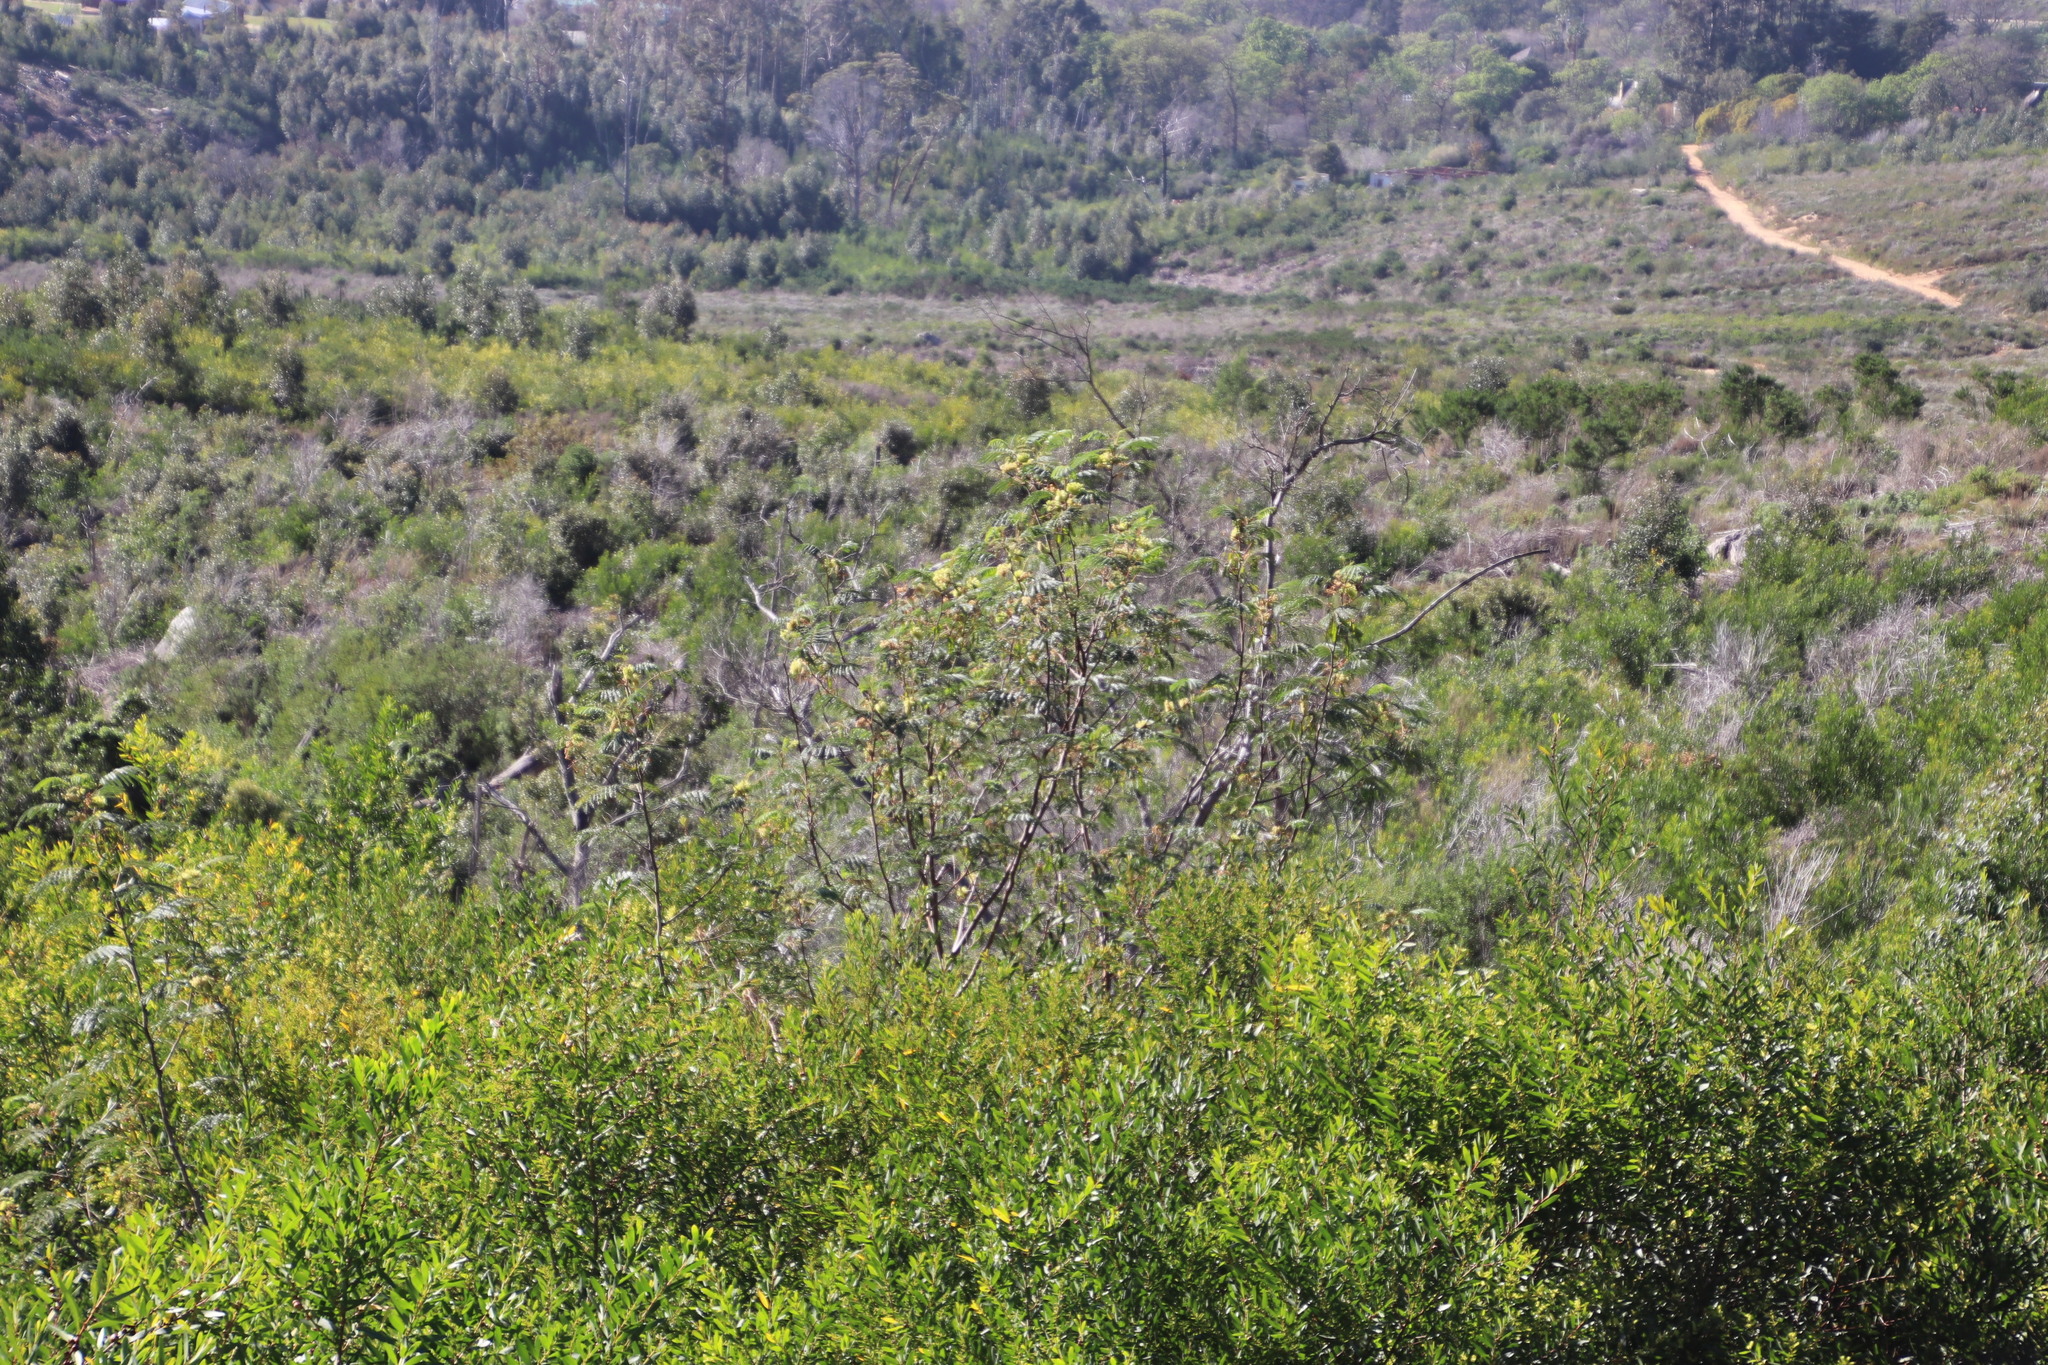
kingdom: Plantae
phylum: Tracheophyta
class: Magnoliopsida
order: Fabales
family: Fabaceae
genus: Paraserianthes
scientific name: Paraserianthes lophantha
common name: Plume albizia
